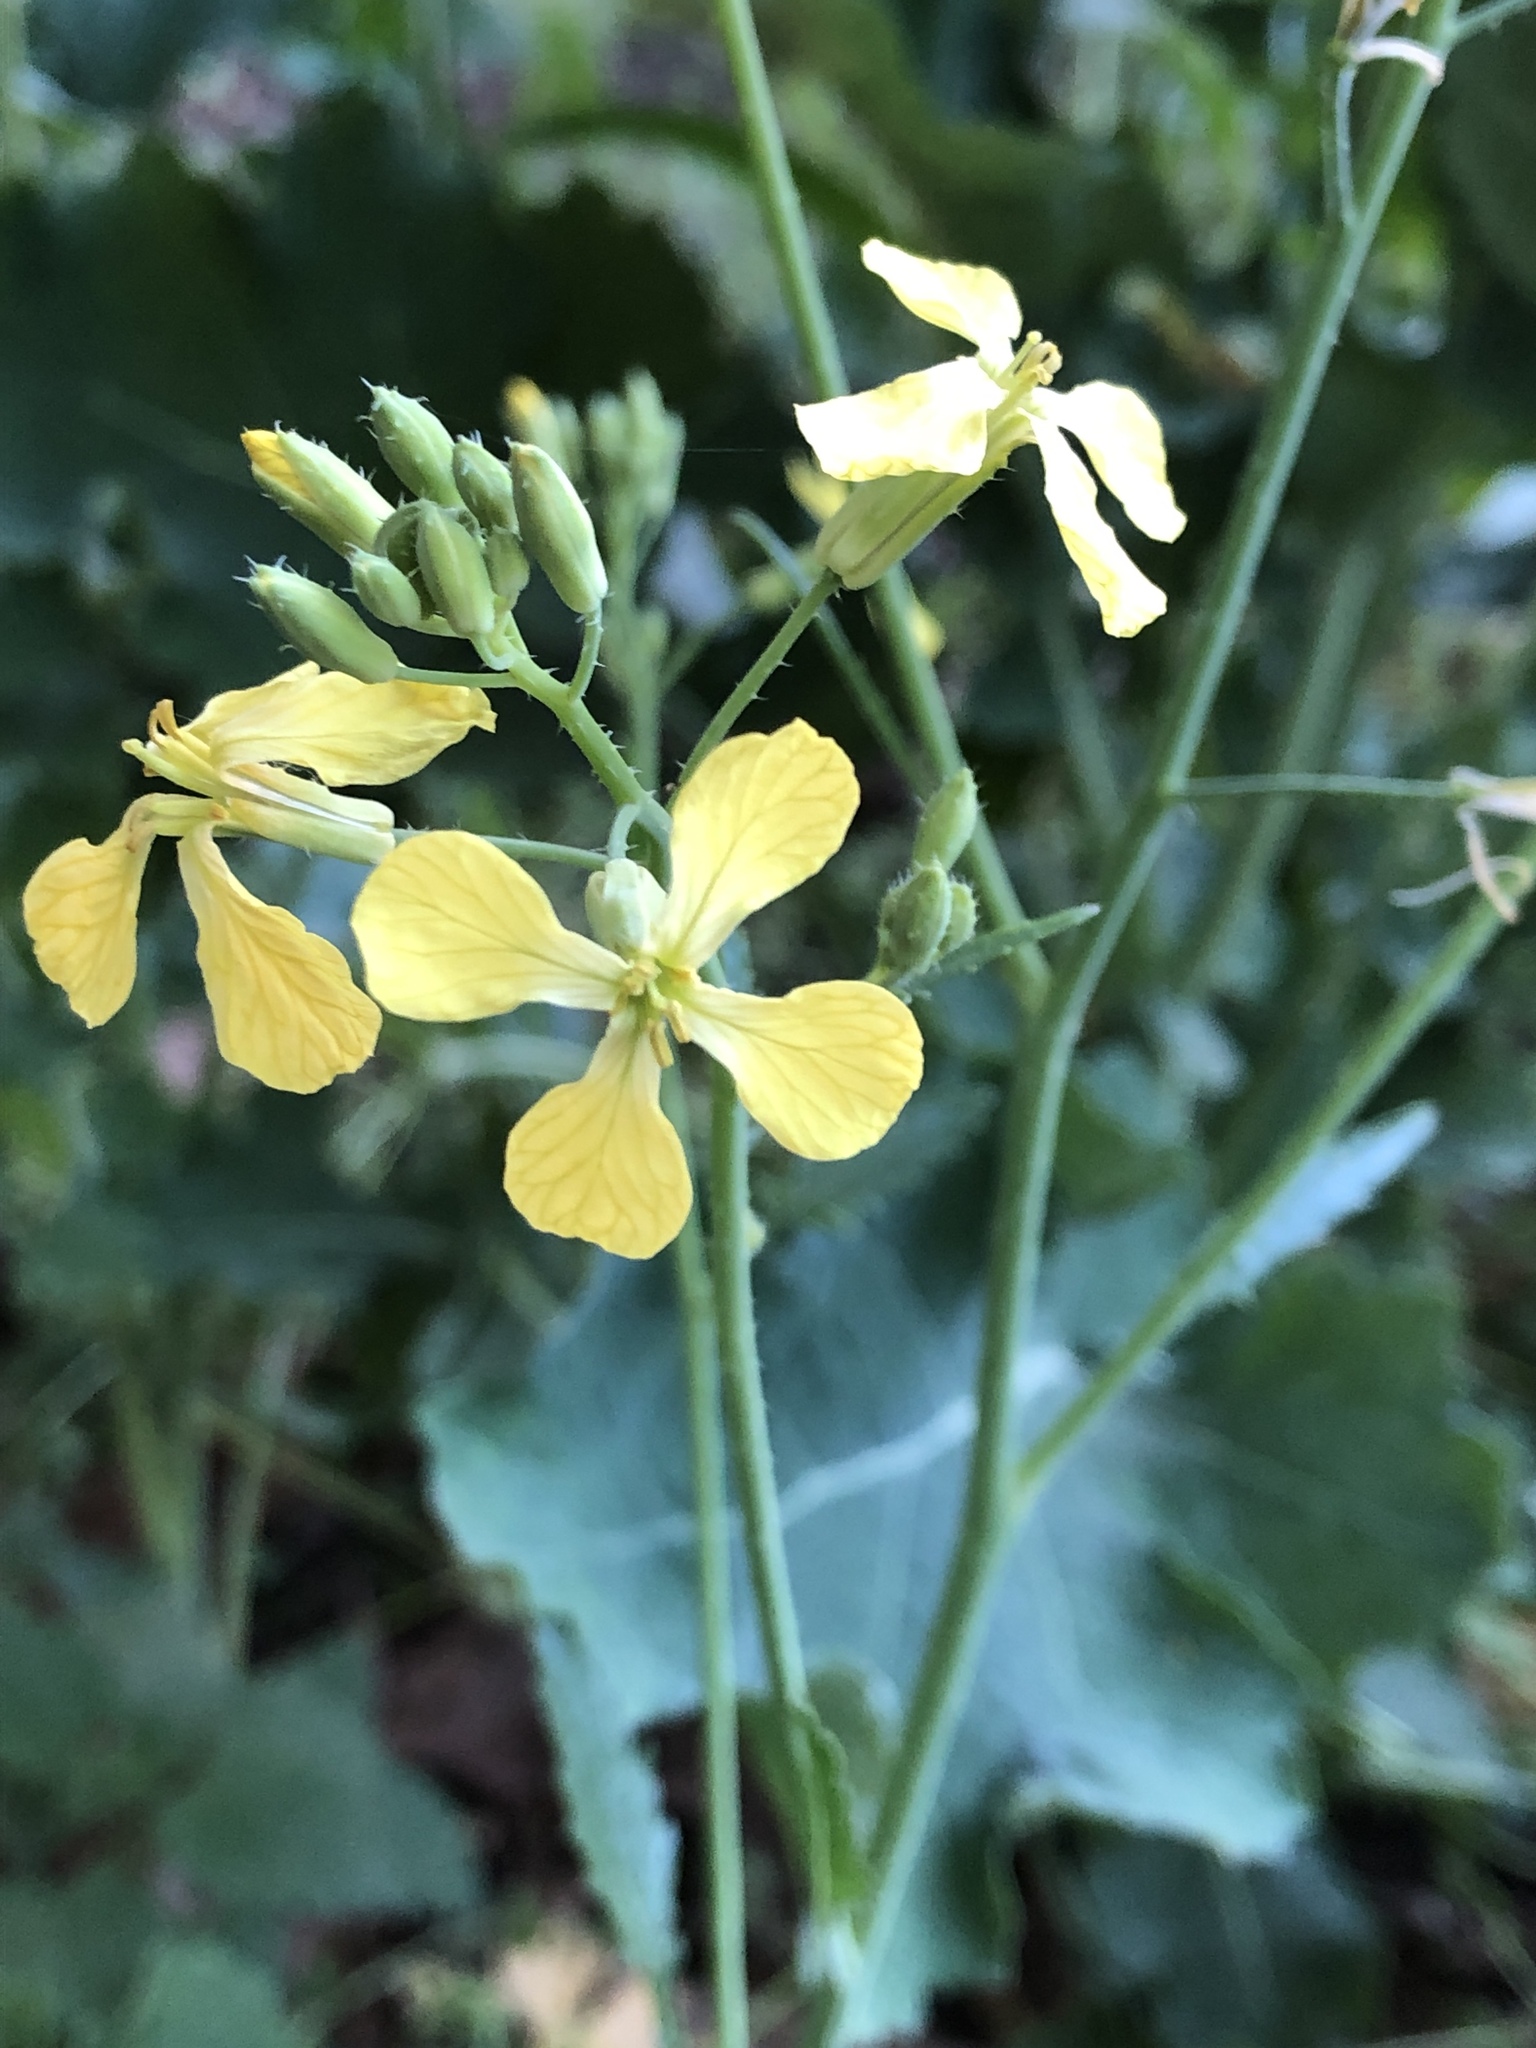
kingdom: Plantae
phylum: Tracheophyta
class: Magnoliopsida
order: Brassicales
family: Brassicaceae
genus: Raphanus
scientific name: Raphanus raphanistrum
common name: Wild radish
